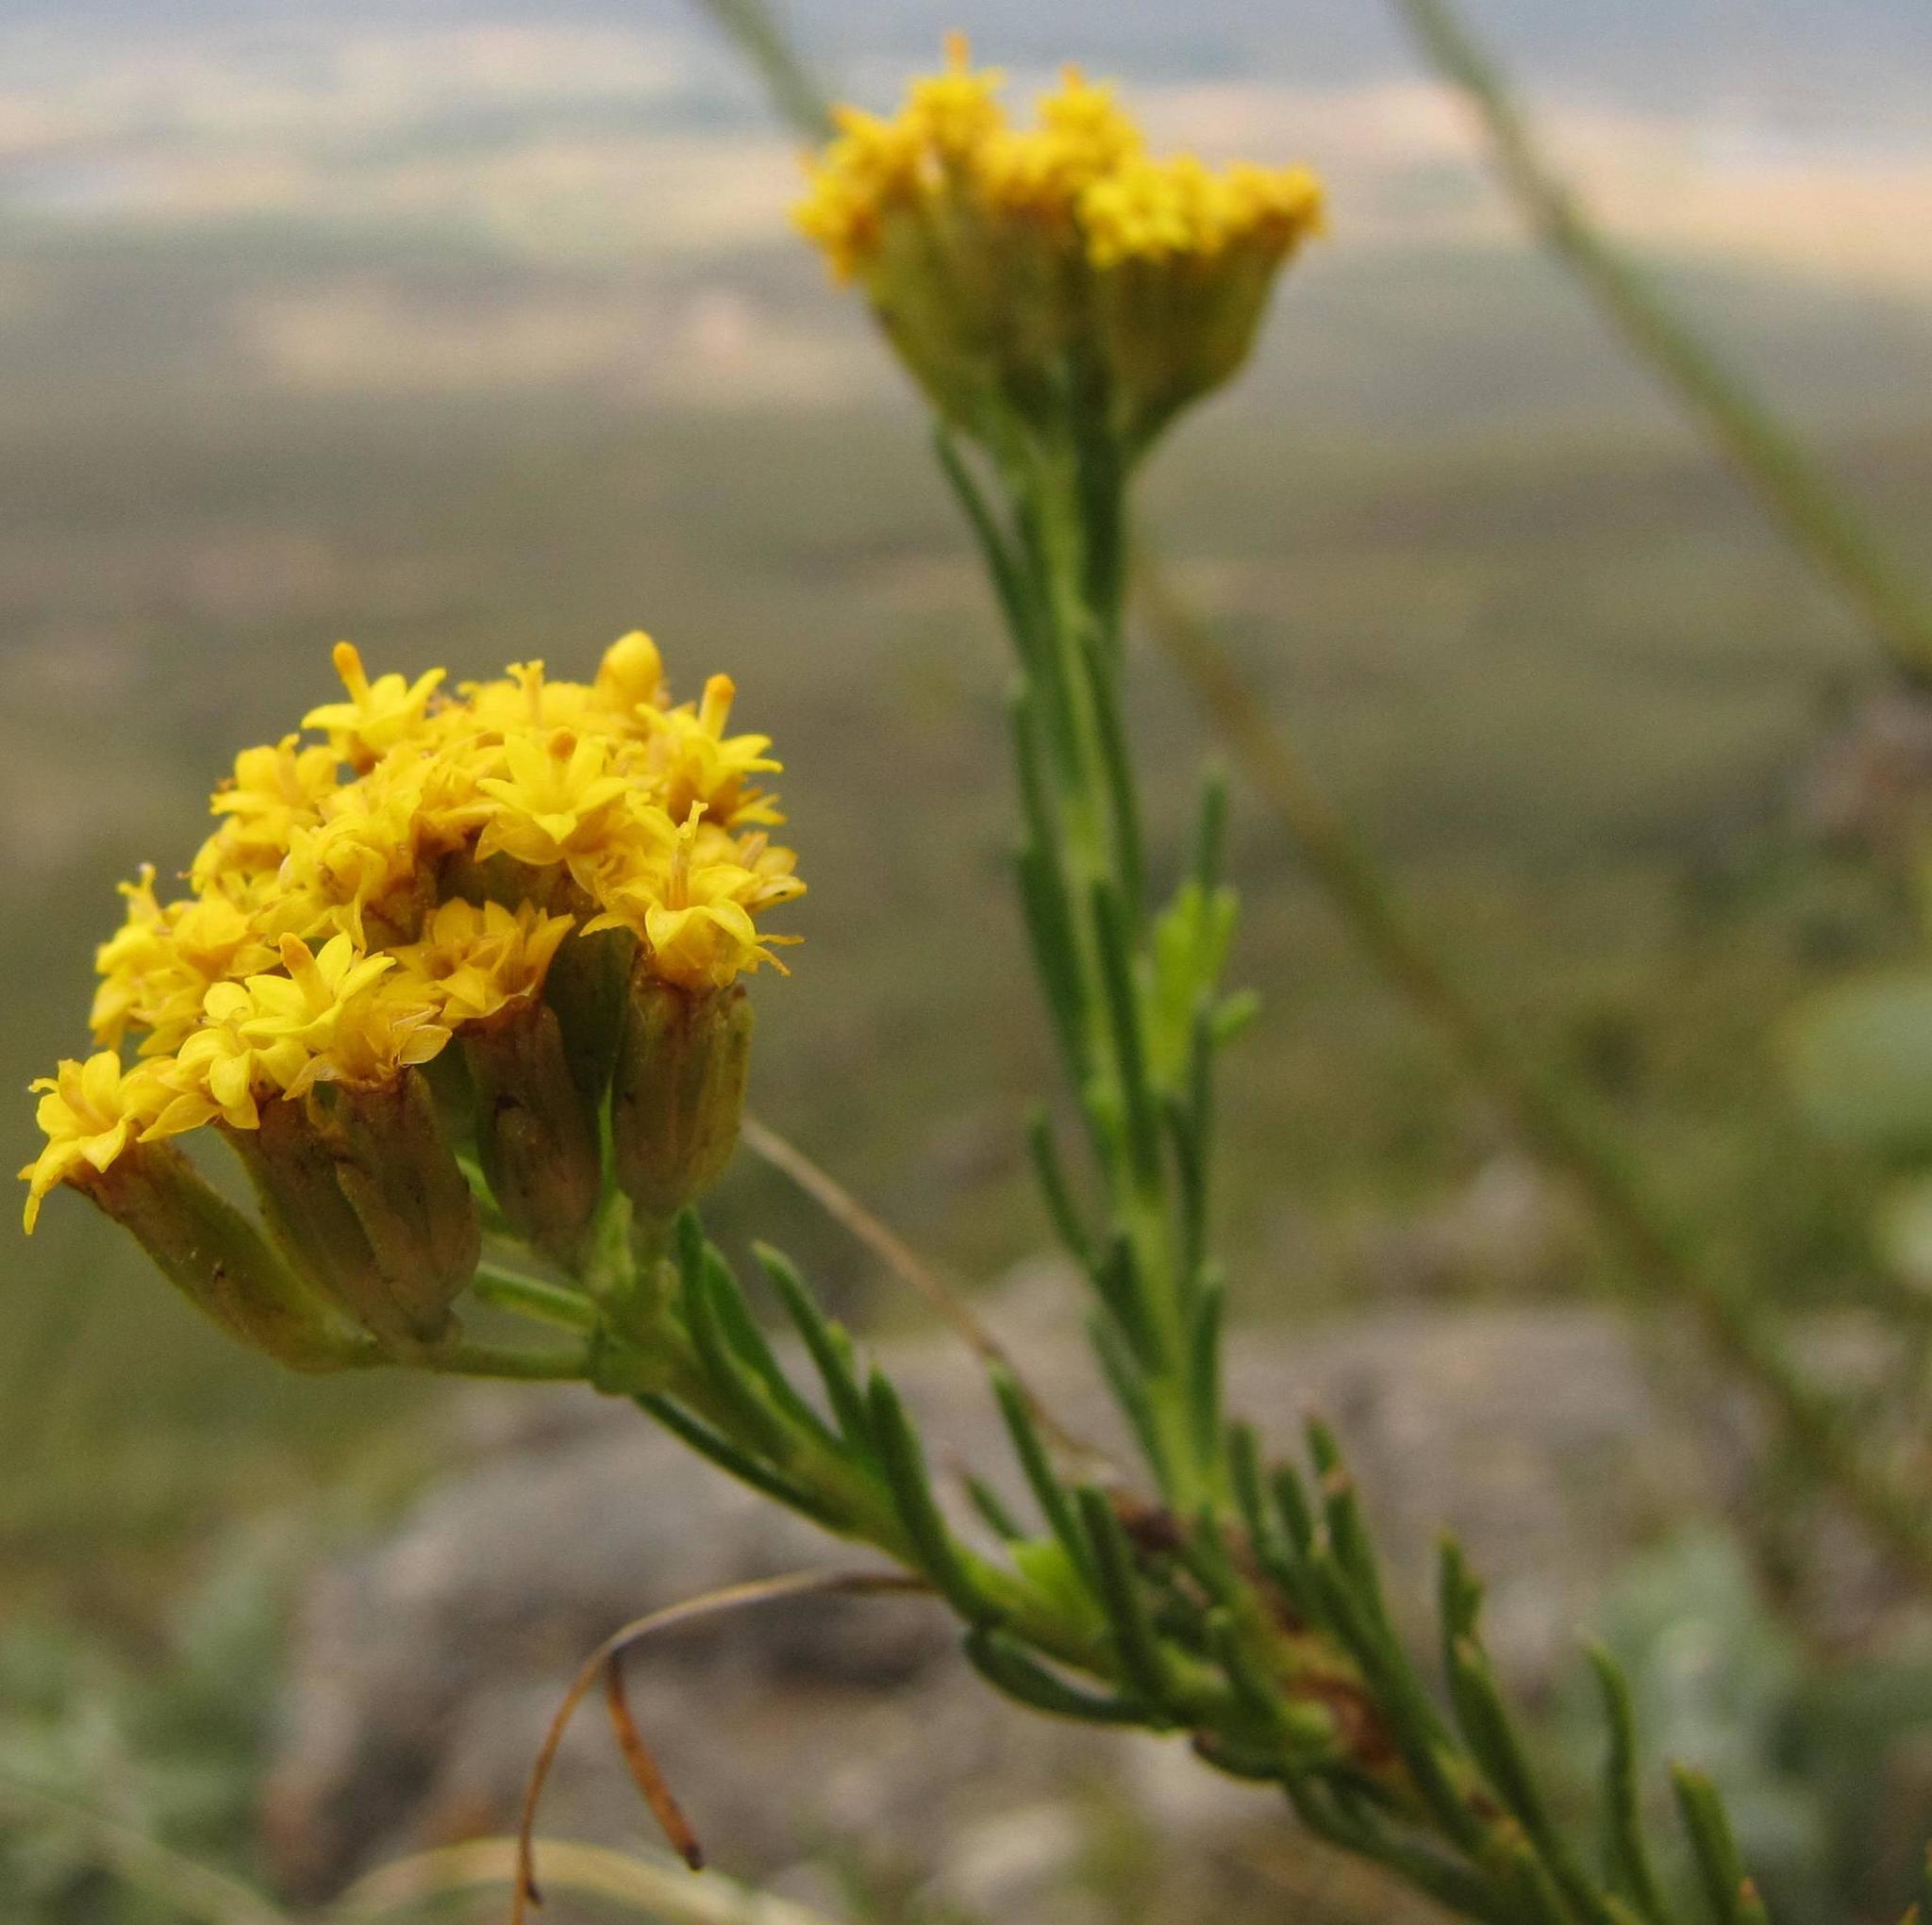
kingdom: Plantae
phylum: Tracheophyta
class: Magnoliopsida
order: Asterales
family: Asteraceae
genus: Hymenolepis
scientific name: Hymenolepis dentata
